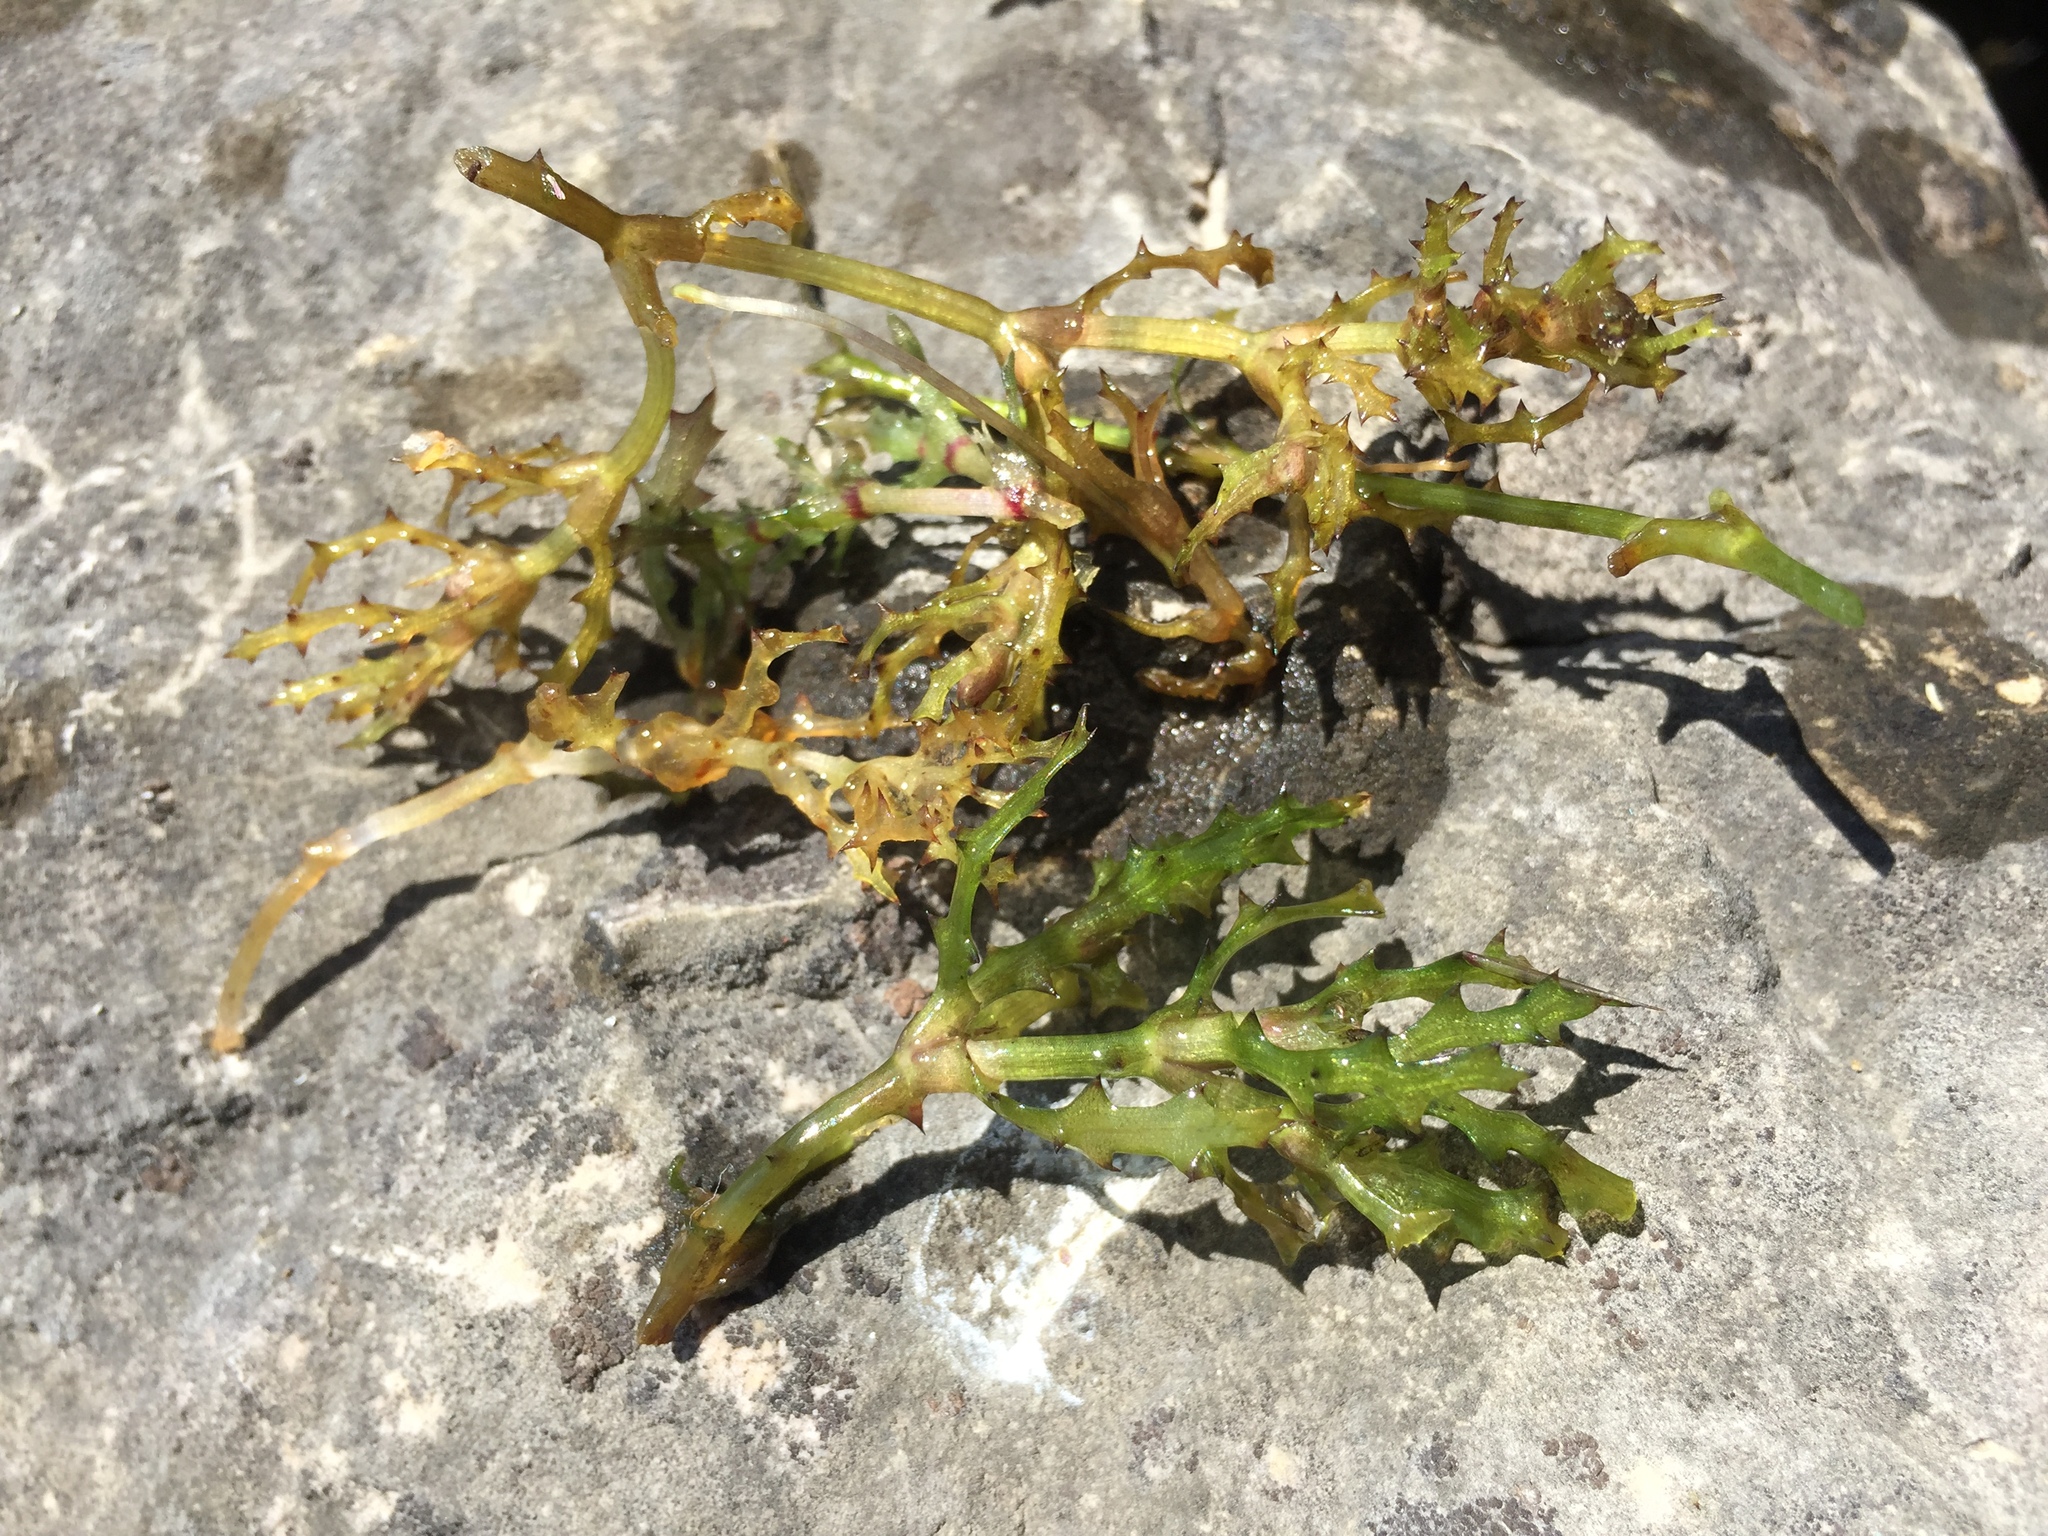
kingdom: Plantae
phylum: Tracheophyta
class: Liliopsida
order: Alismatales
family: Hydrocharitaceae
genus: Najas
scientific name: Najas marina
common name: Holly-leaved naiad
